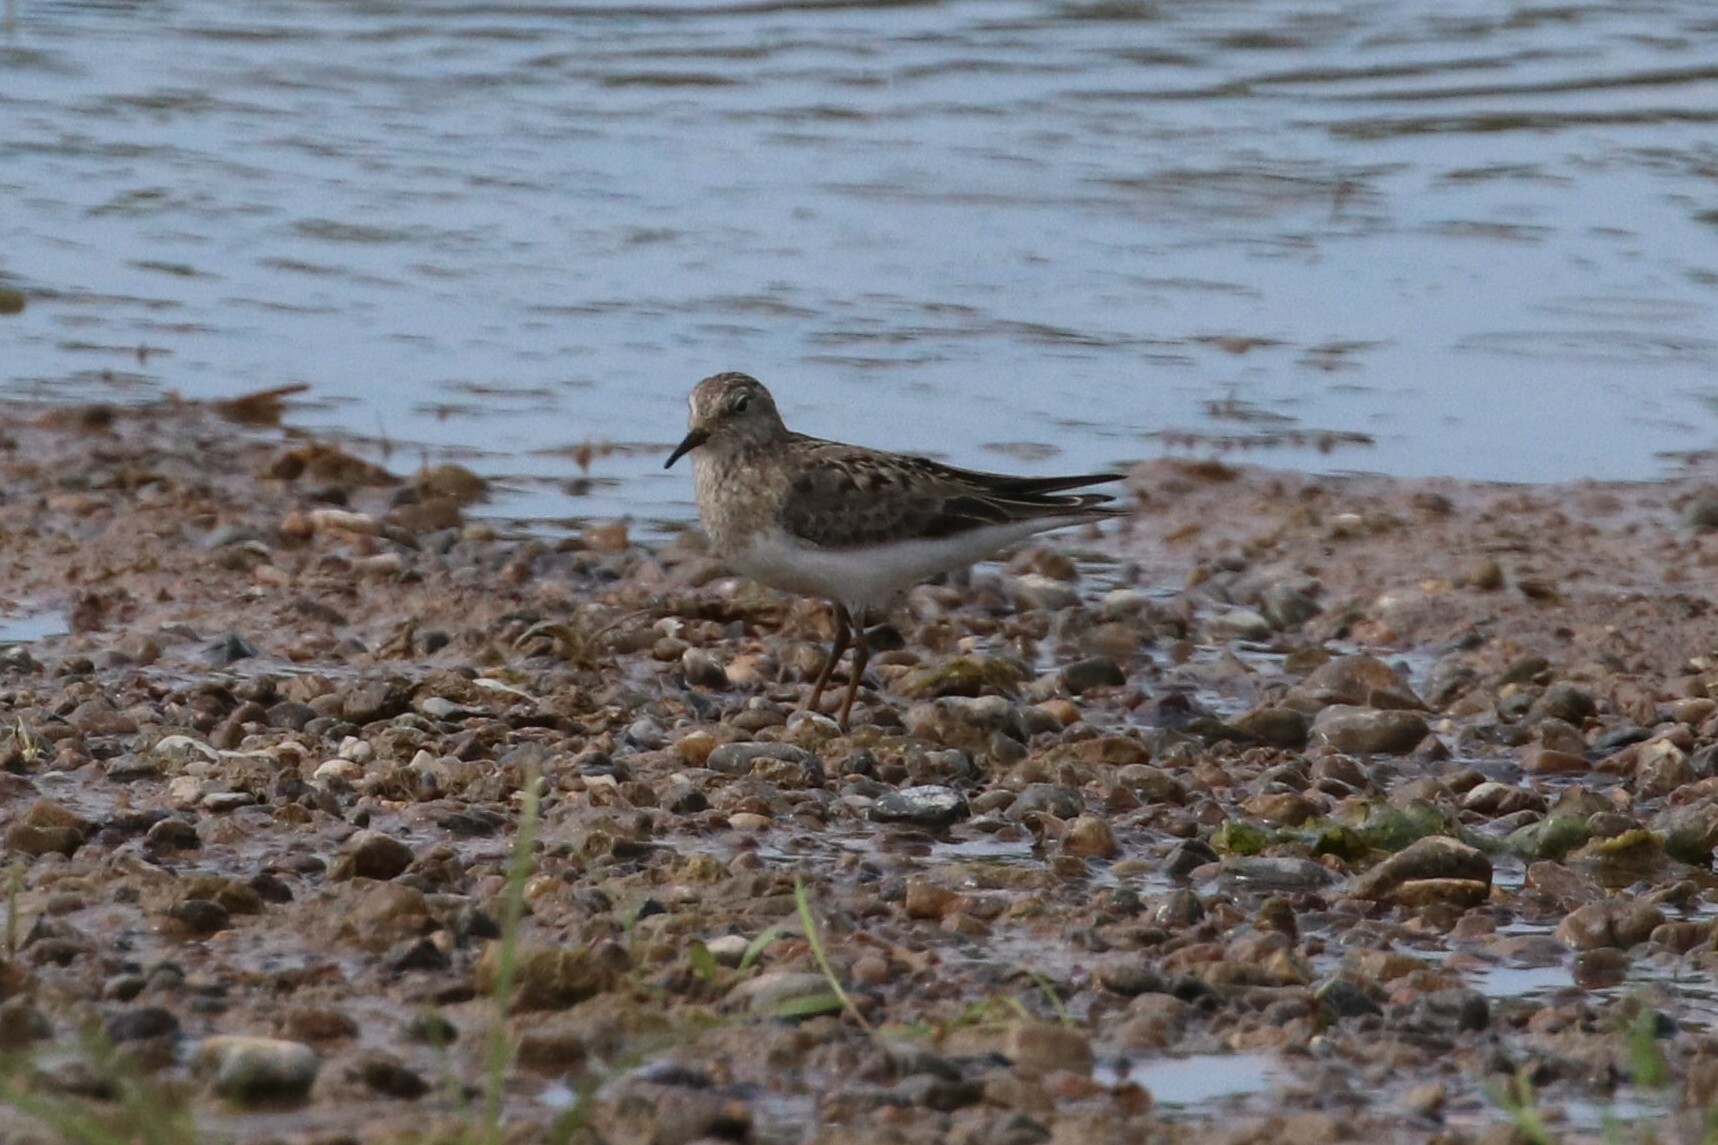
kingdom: Animalia
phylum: Chordata
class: Aves
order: Charadriiformes
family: Scolopacidae
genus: Calidris
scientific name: Calidris temminckii
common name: Temminck's stint
